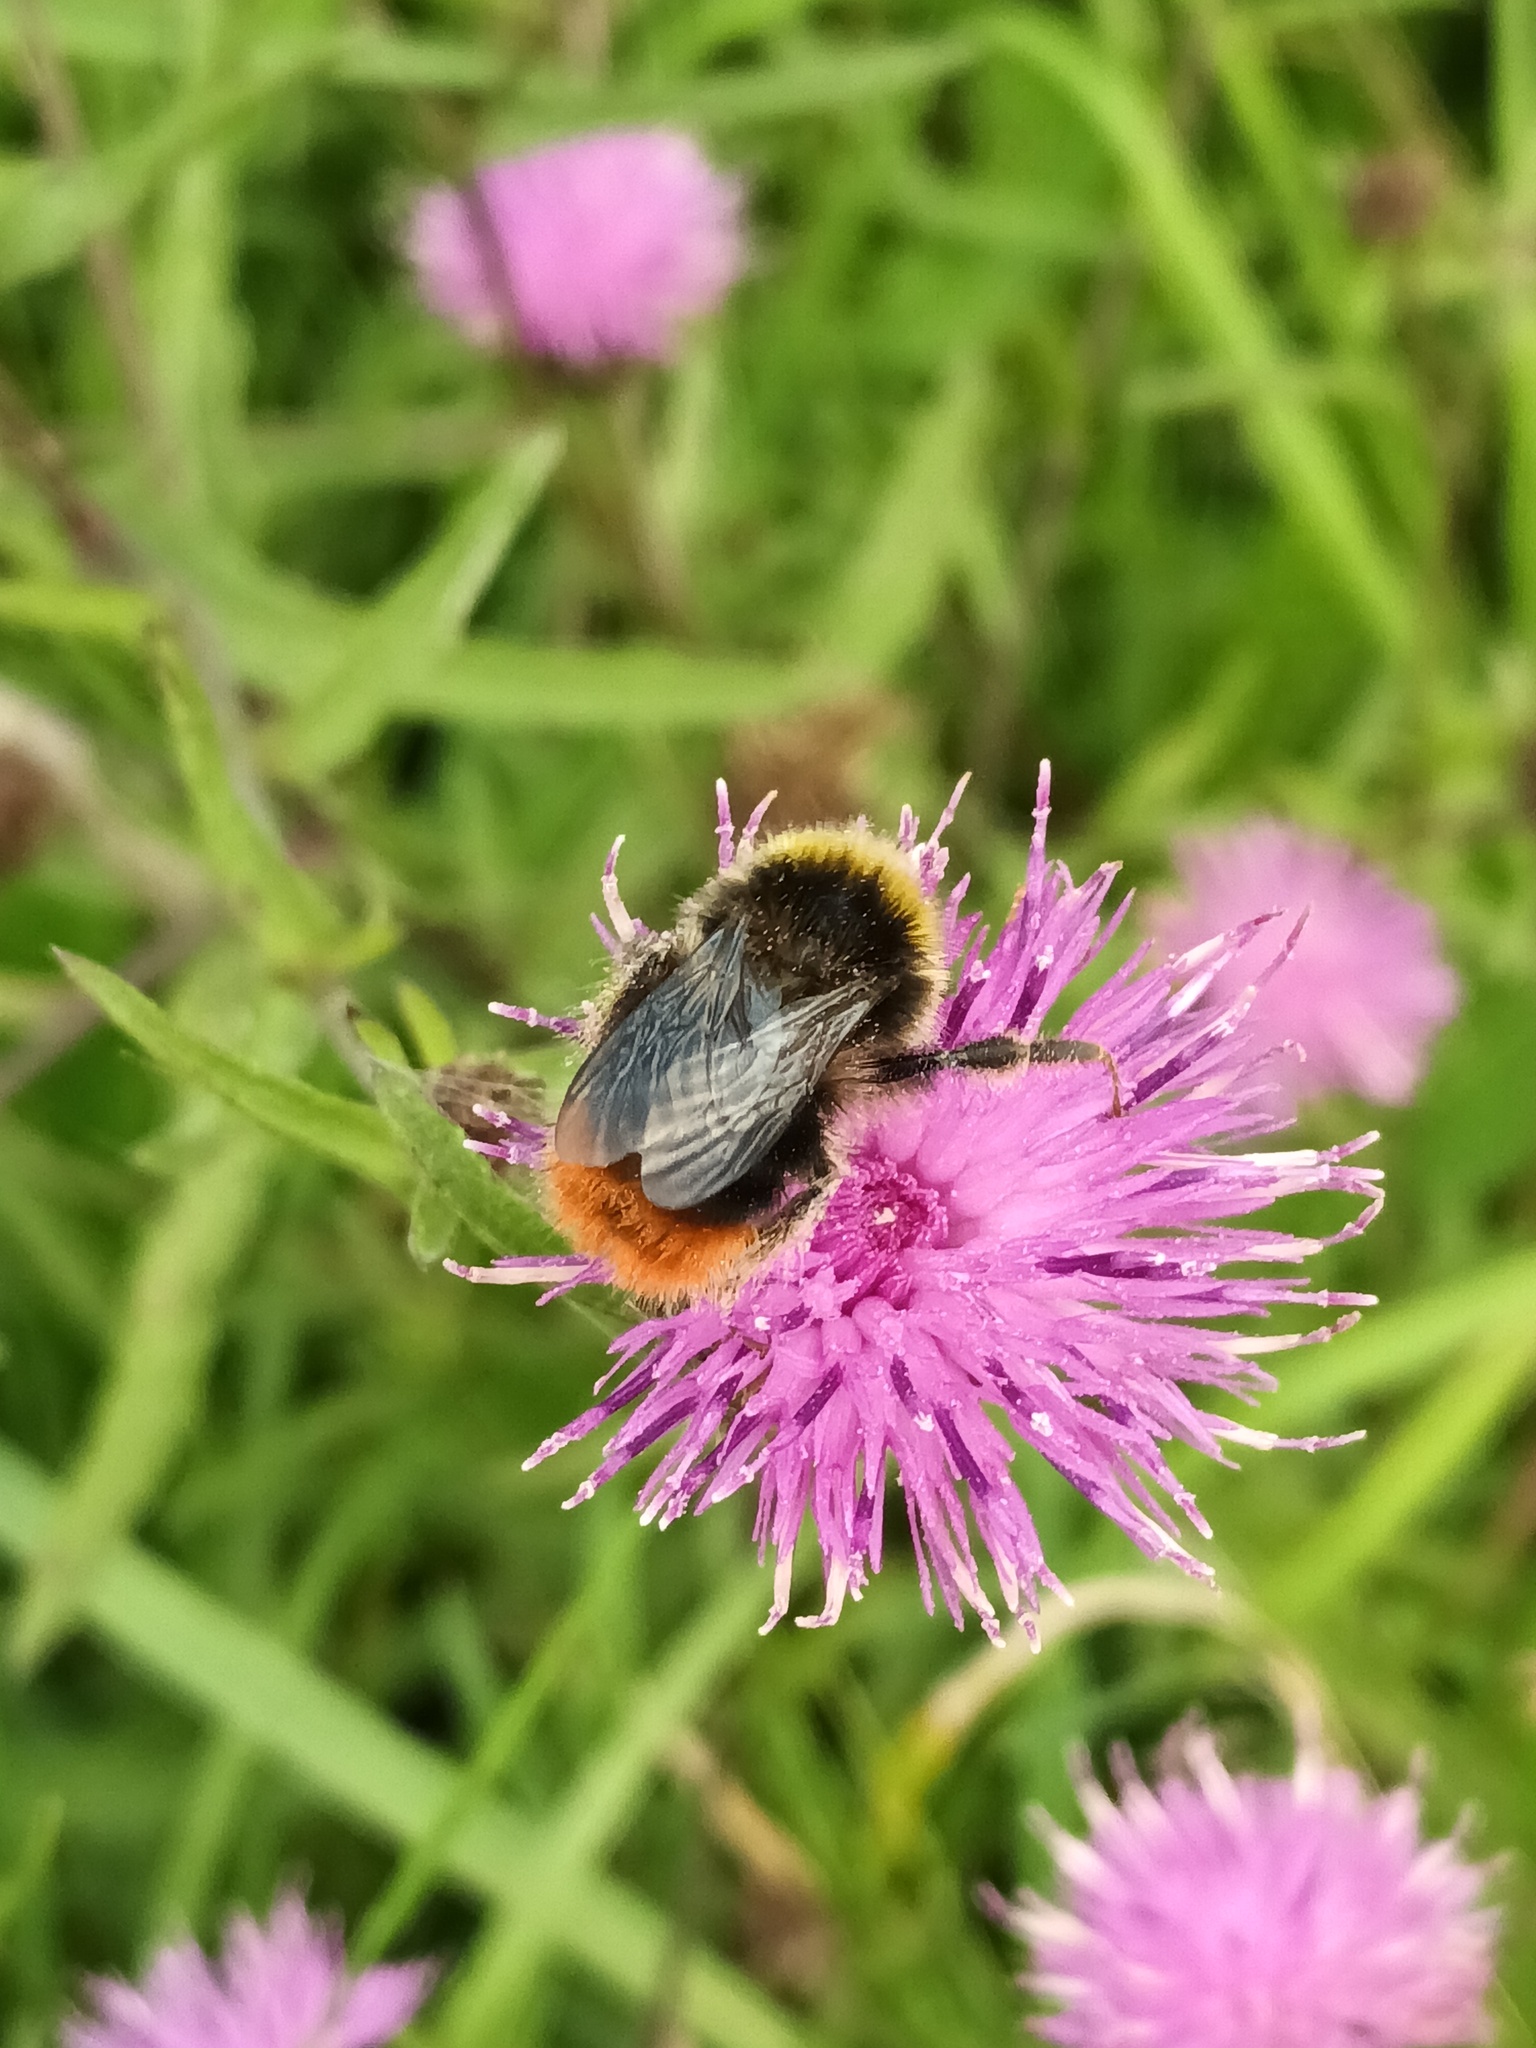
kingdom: Animalia
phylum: Arthropoda
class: Insecta
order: Hymenoptera
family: Apidae
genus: Bombus
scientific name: Bombus lapidarius
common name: Large red-tailed humble-bee
